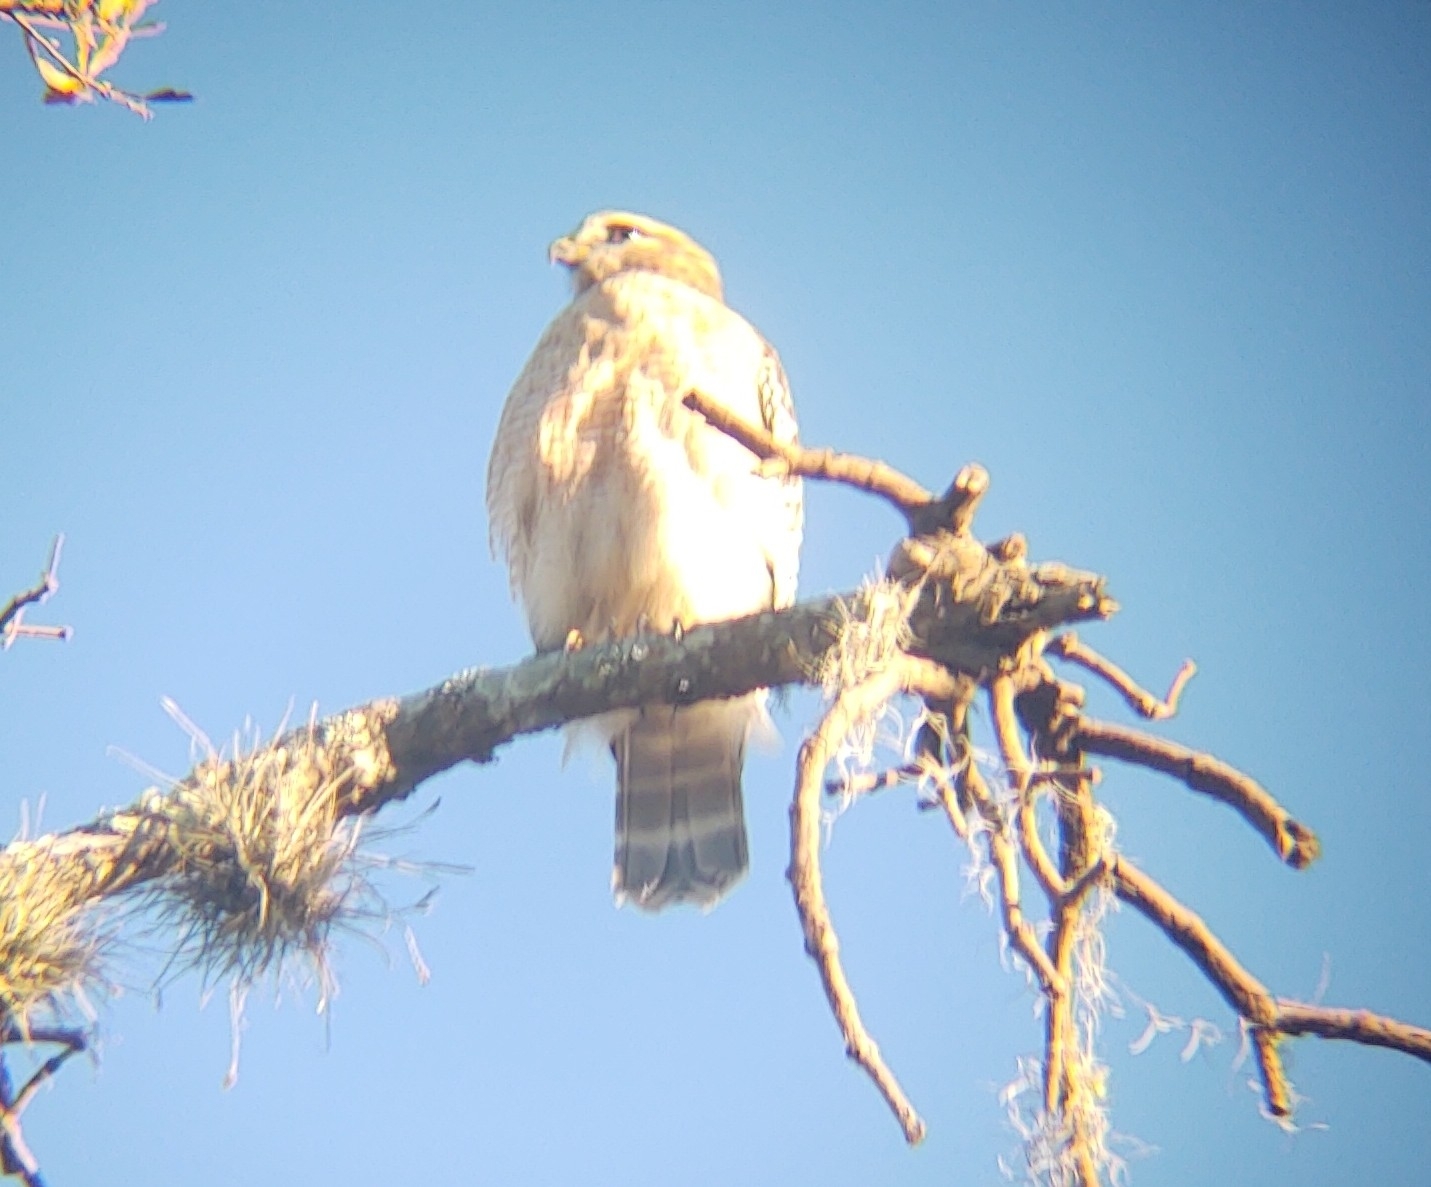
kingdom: Animalia
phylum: Chordata
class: Aves
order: Accipitriformes
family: Accipitridae
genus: Buteo
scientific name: Buteo lineatus
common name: Red-shouldered hawk
